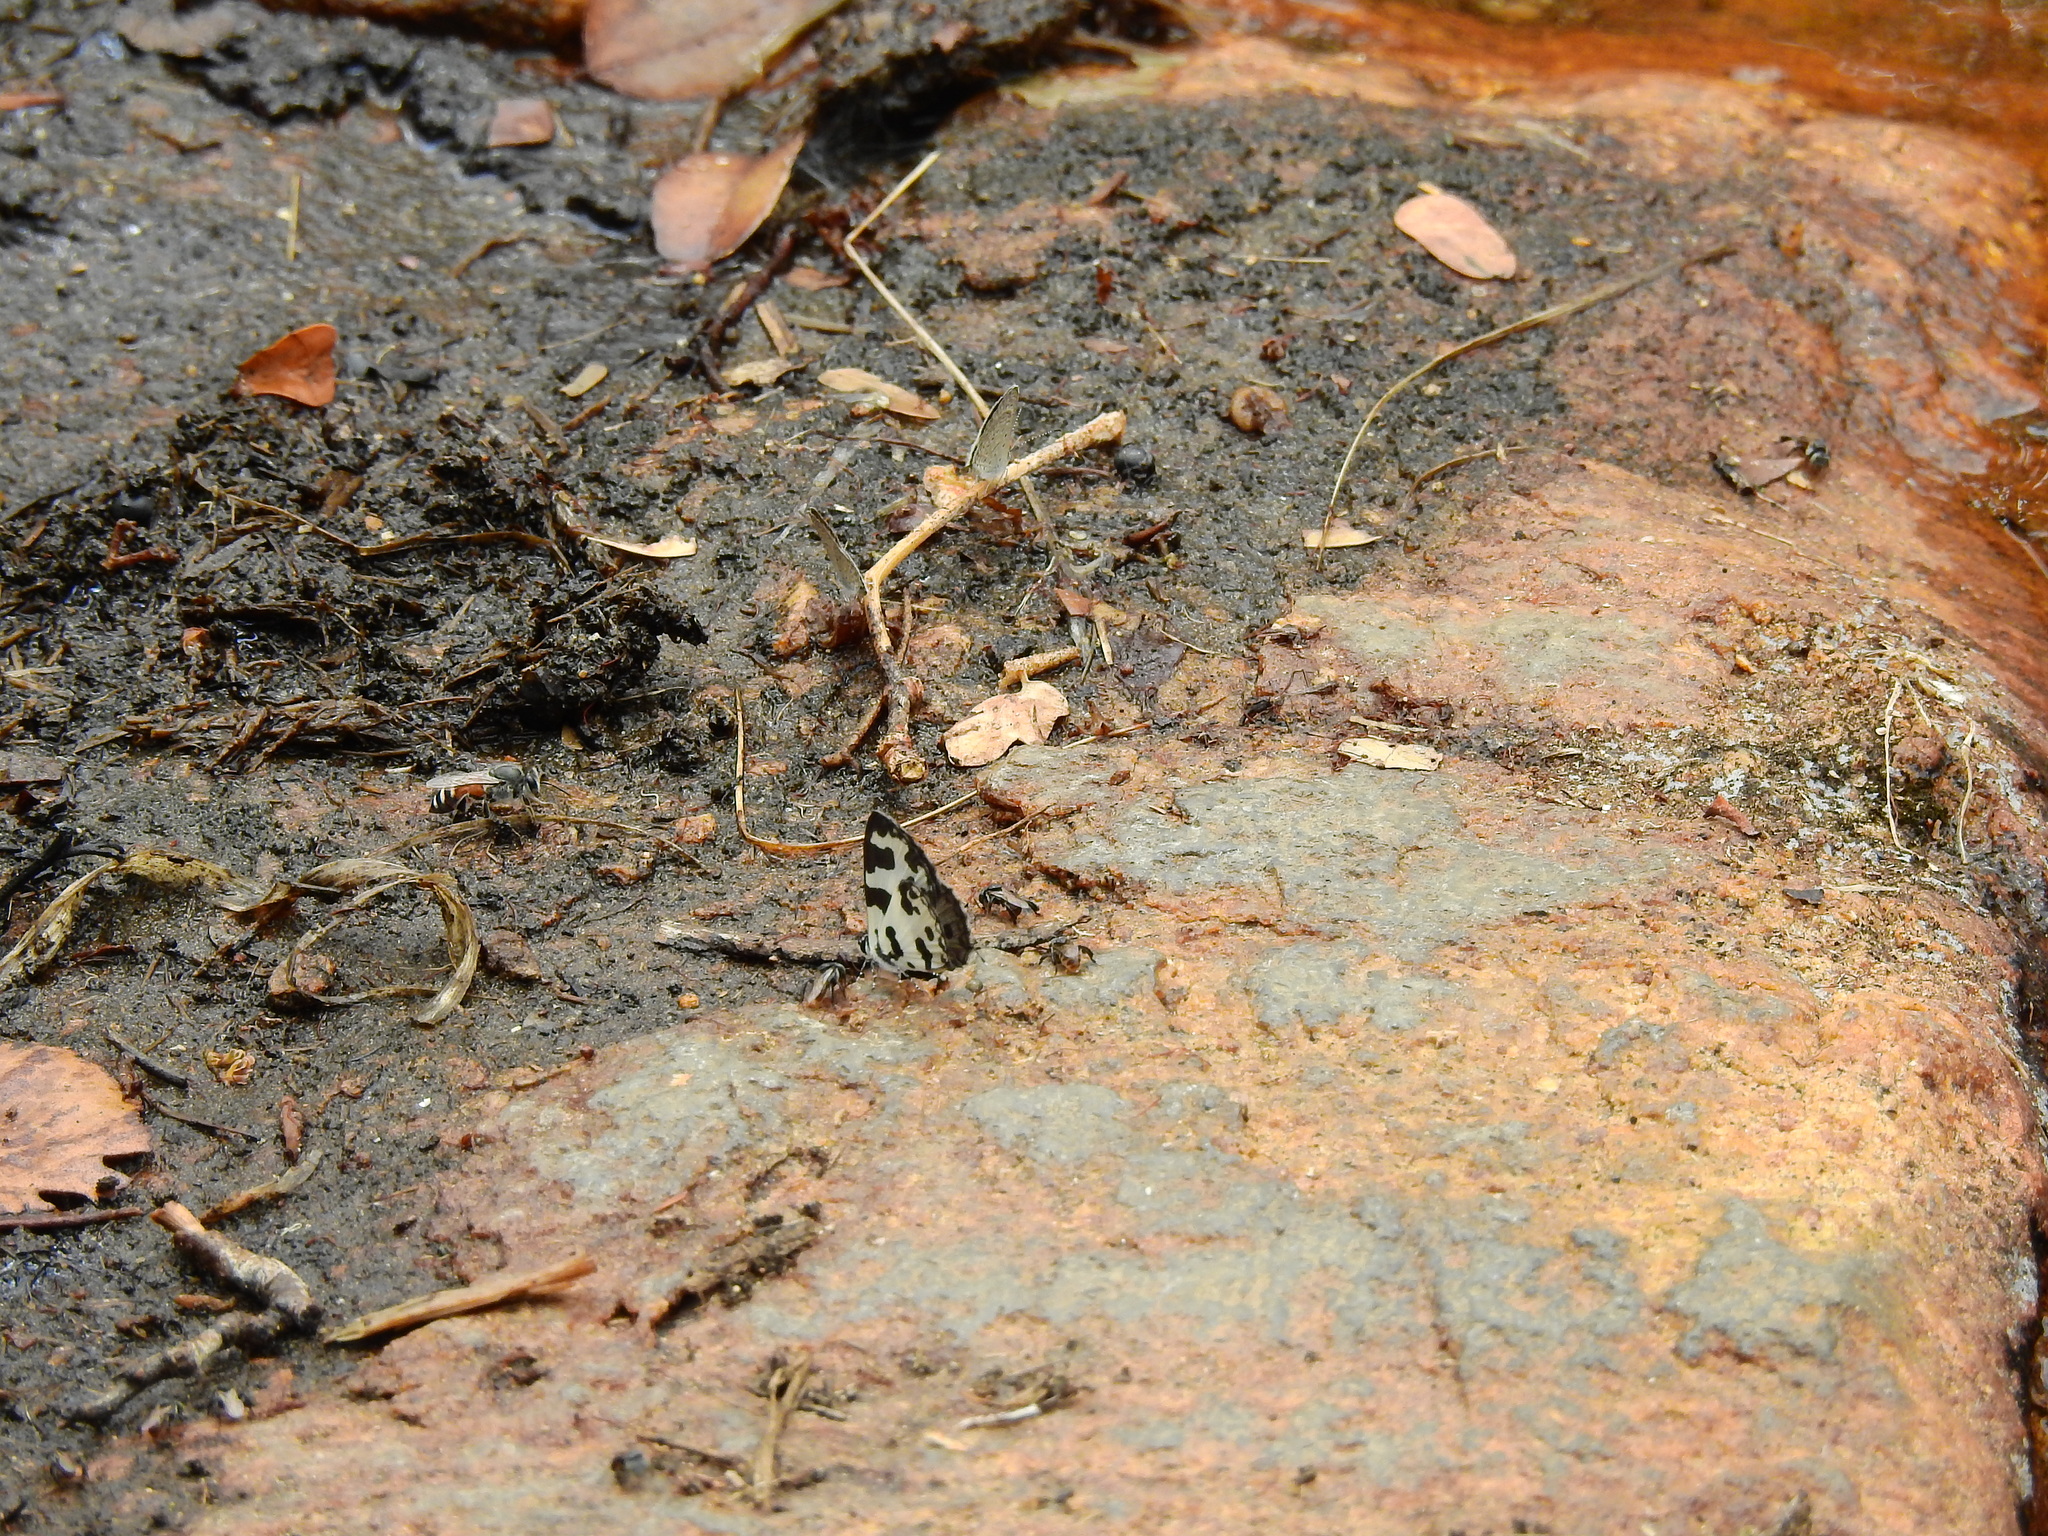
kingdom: Animalia
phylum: Arthropoda
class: Insecta
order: Hymenoptera
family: Apidae
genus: Apis
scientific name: Apis florea
